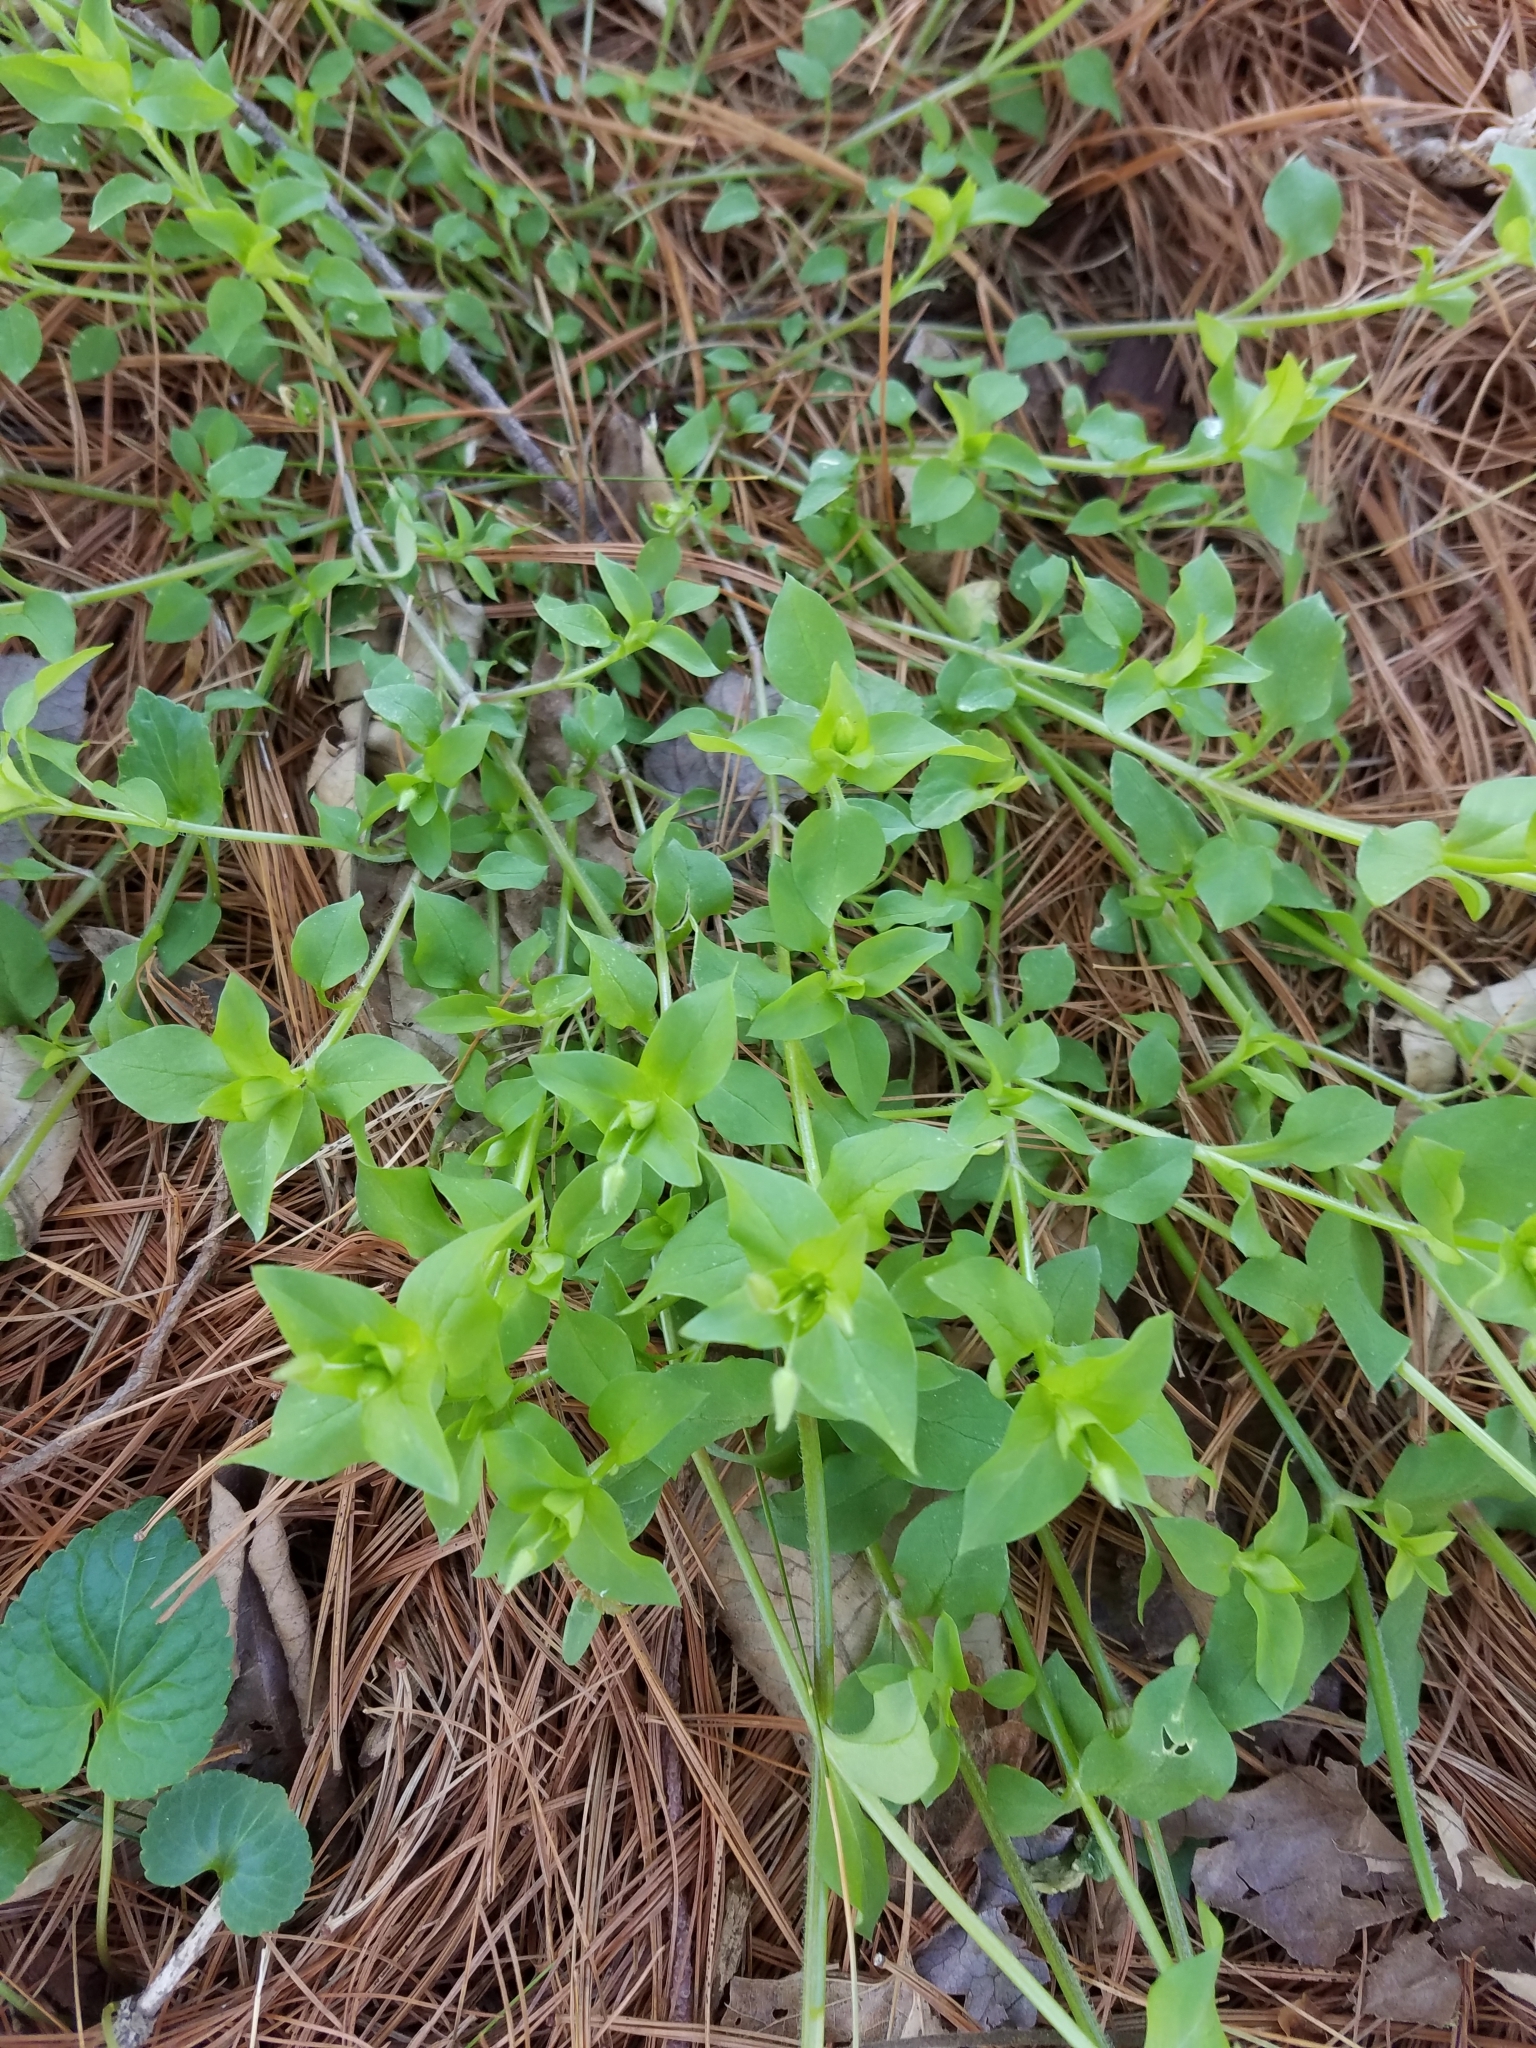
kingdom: Plantae
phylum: Tracheophyta
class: Magnoliopsida
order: Caryophyllales
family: Caryophyllaceae
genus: Stellaria
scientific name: Stellaria media
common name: Common chickweed
